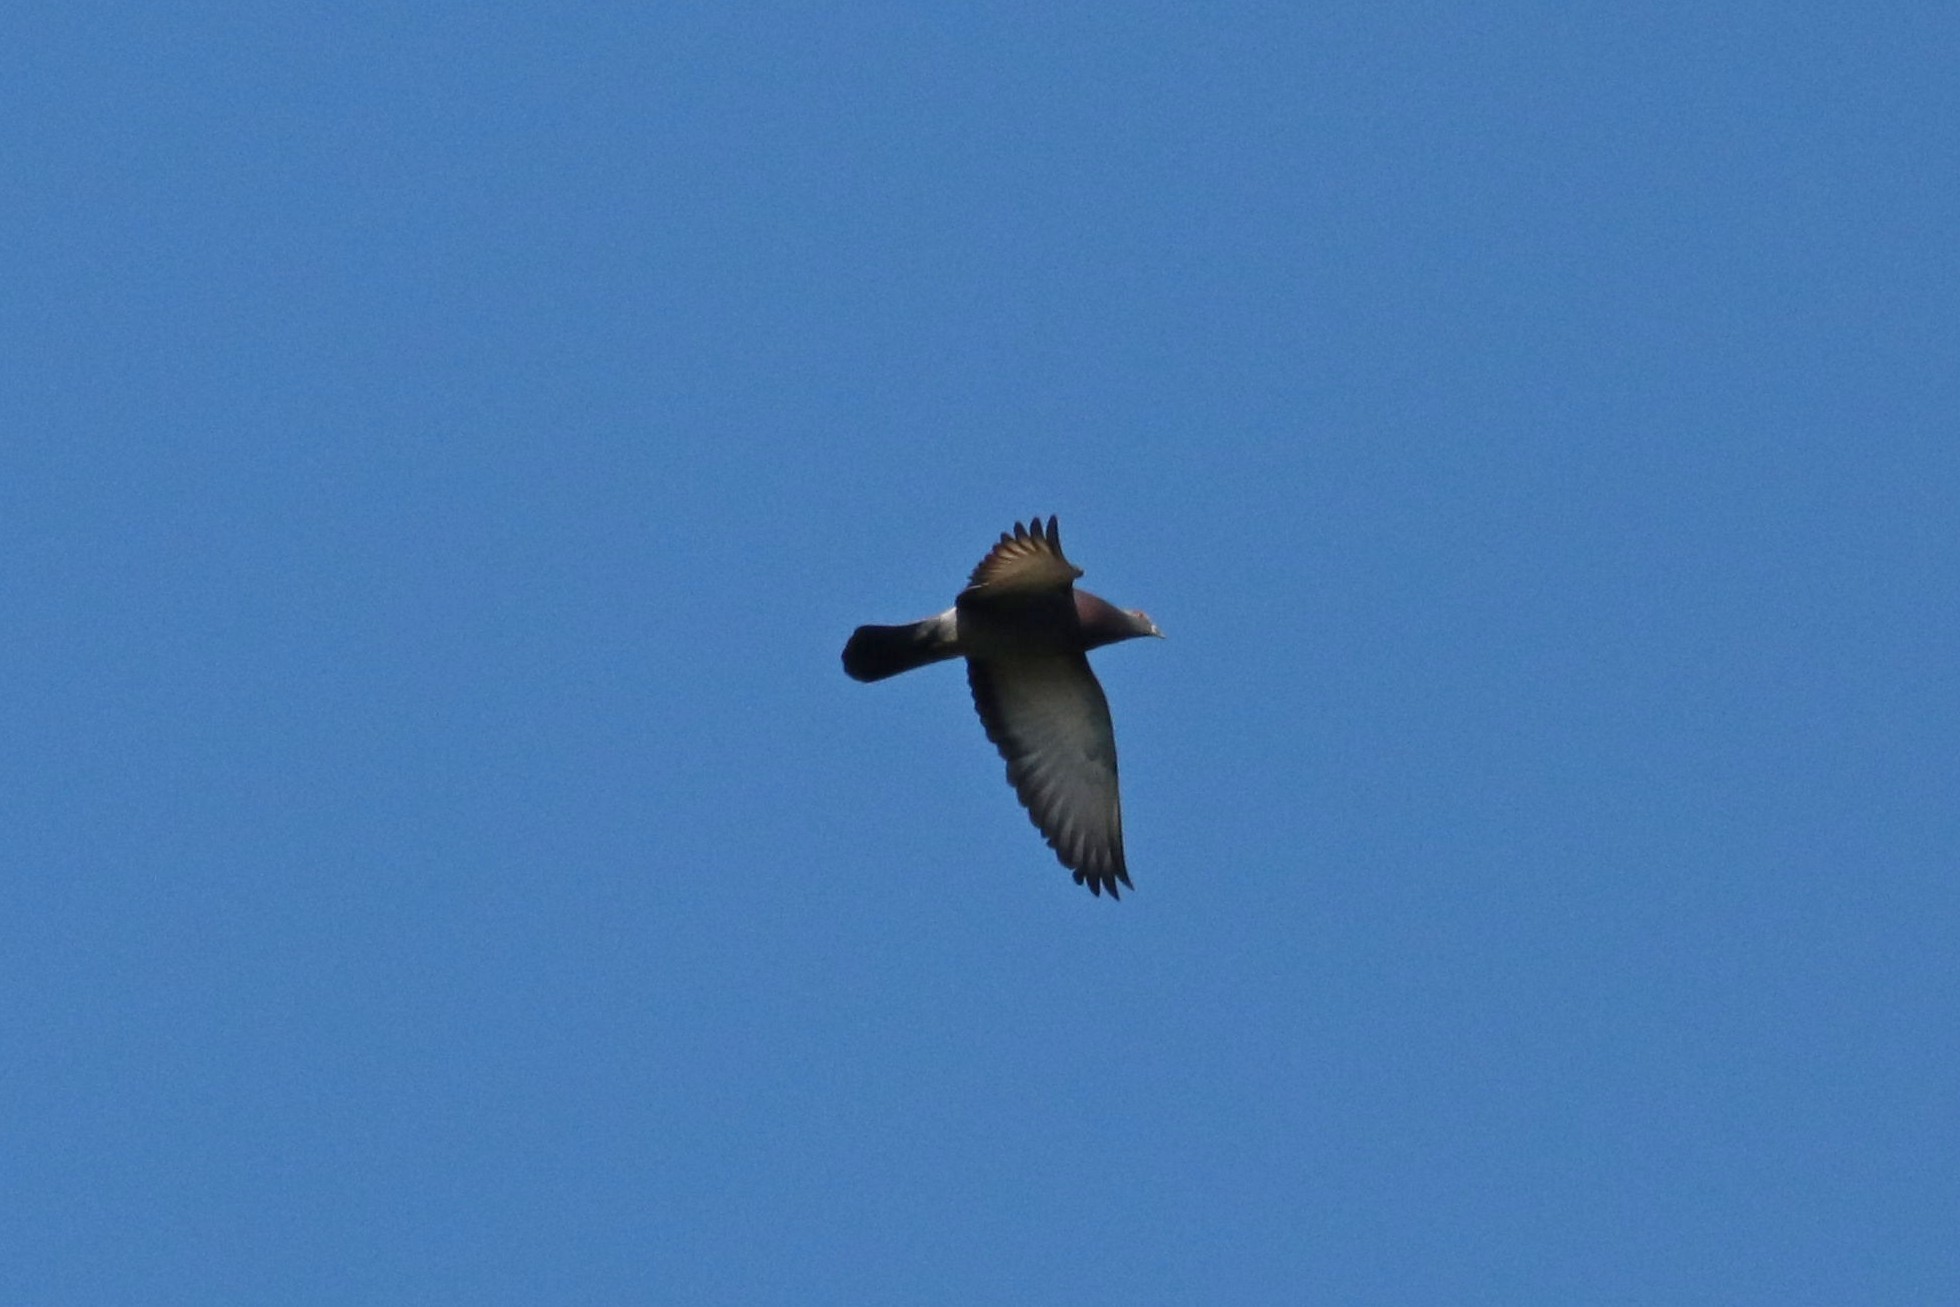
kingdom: Animalia
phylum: Chordata
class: Aves
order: Columbiformes
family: Columbidae
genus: Columba
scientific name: Columba livia
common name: Rock pigeon
